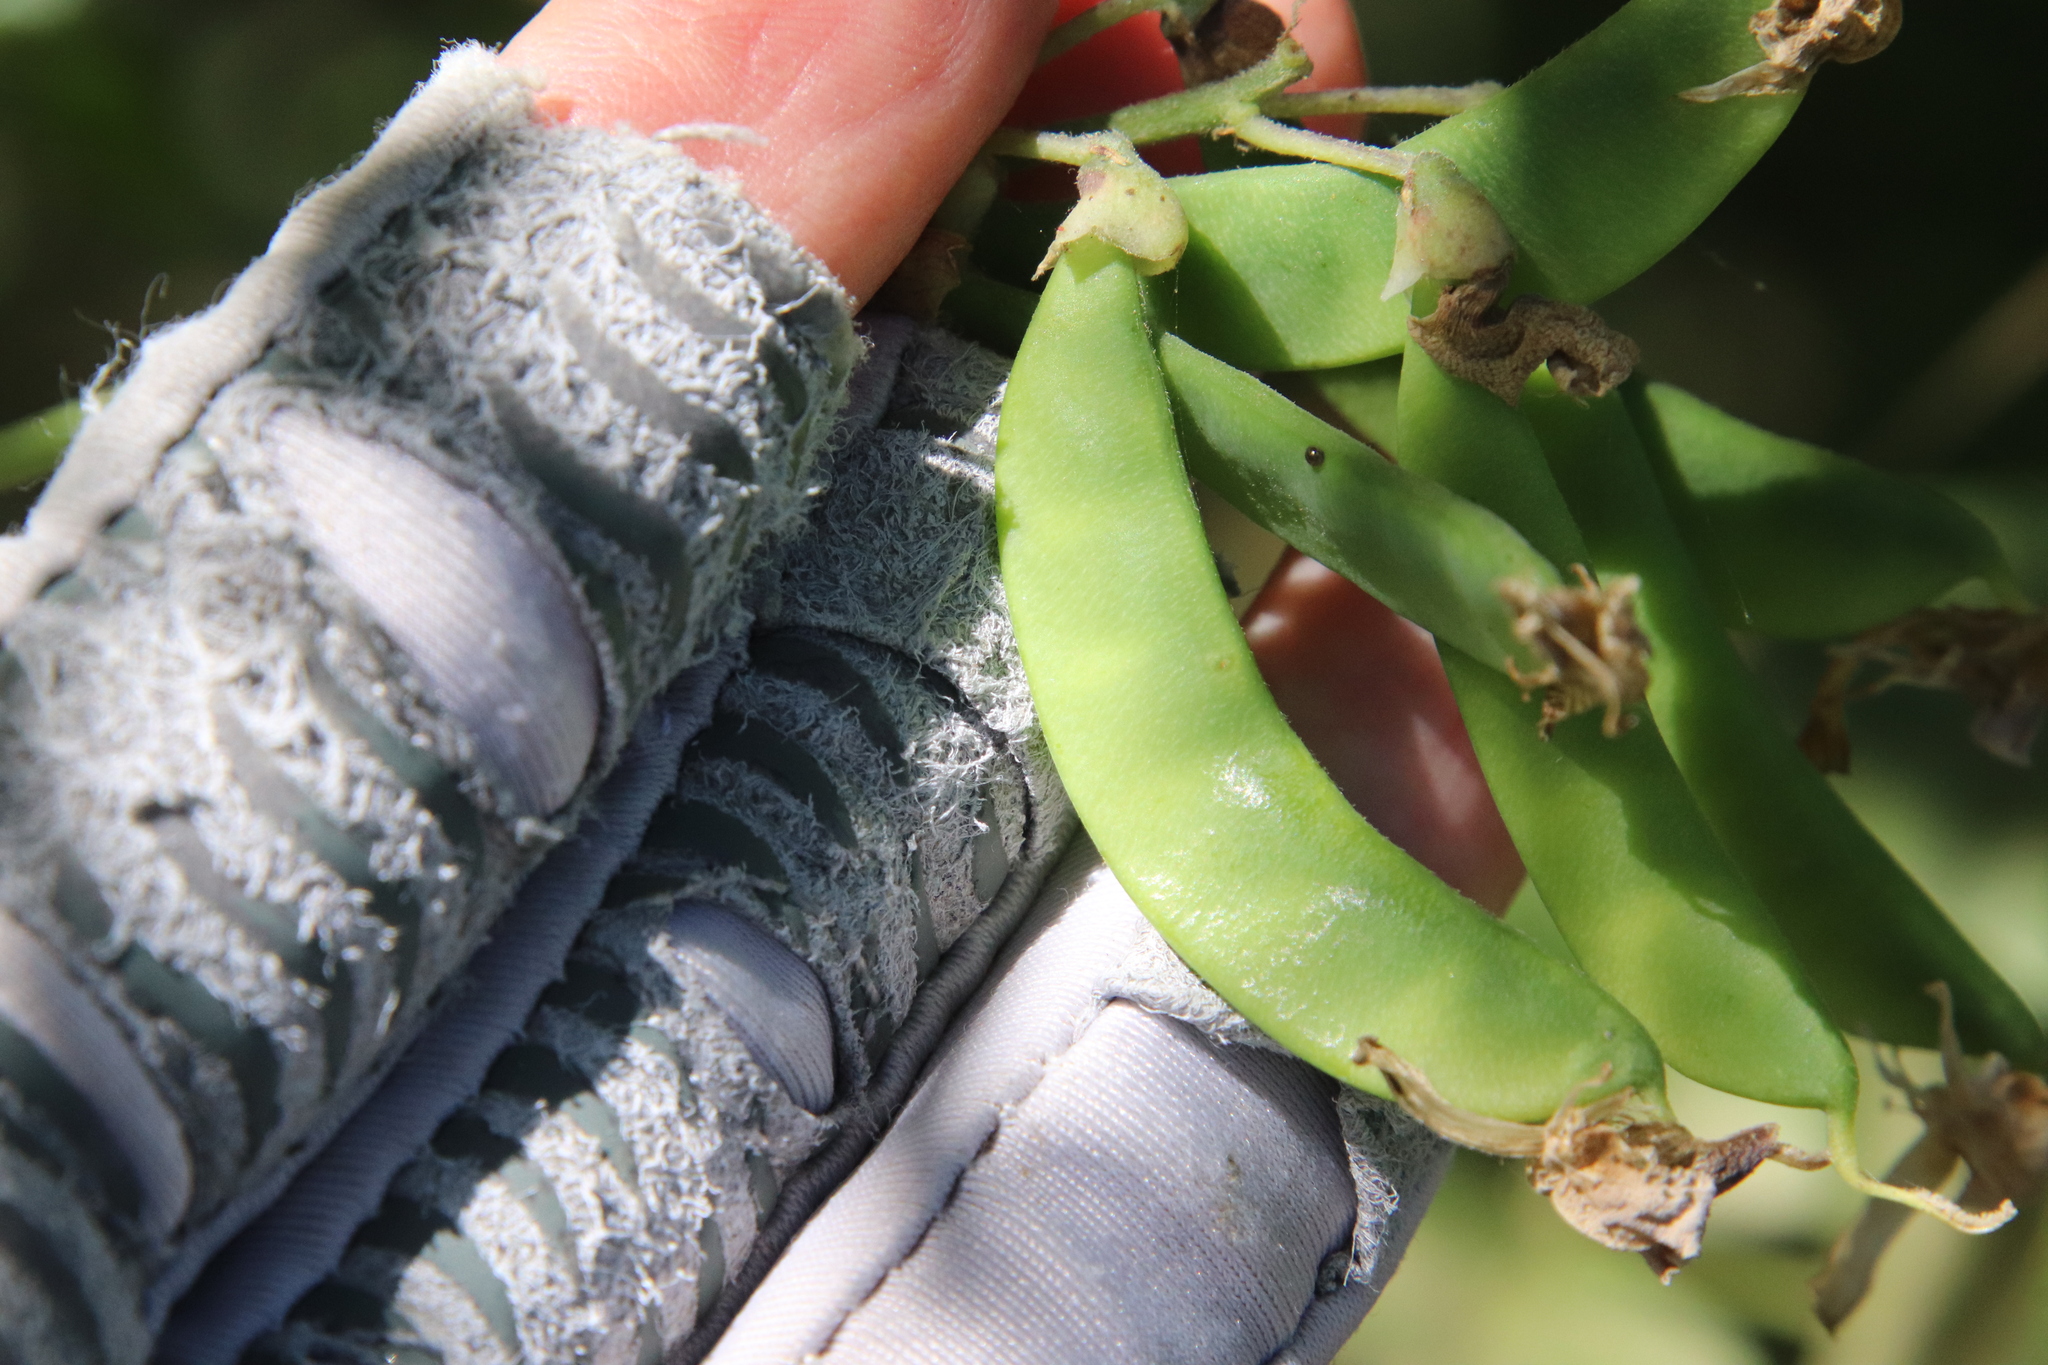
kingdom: Plantae
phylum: Tracheophyta
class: Magnoliopsida
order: Fabales
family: Fabaceae
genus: Dipogon
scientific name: Dipogon lignosus
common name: Okie bean
